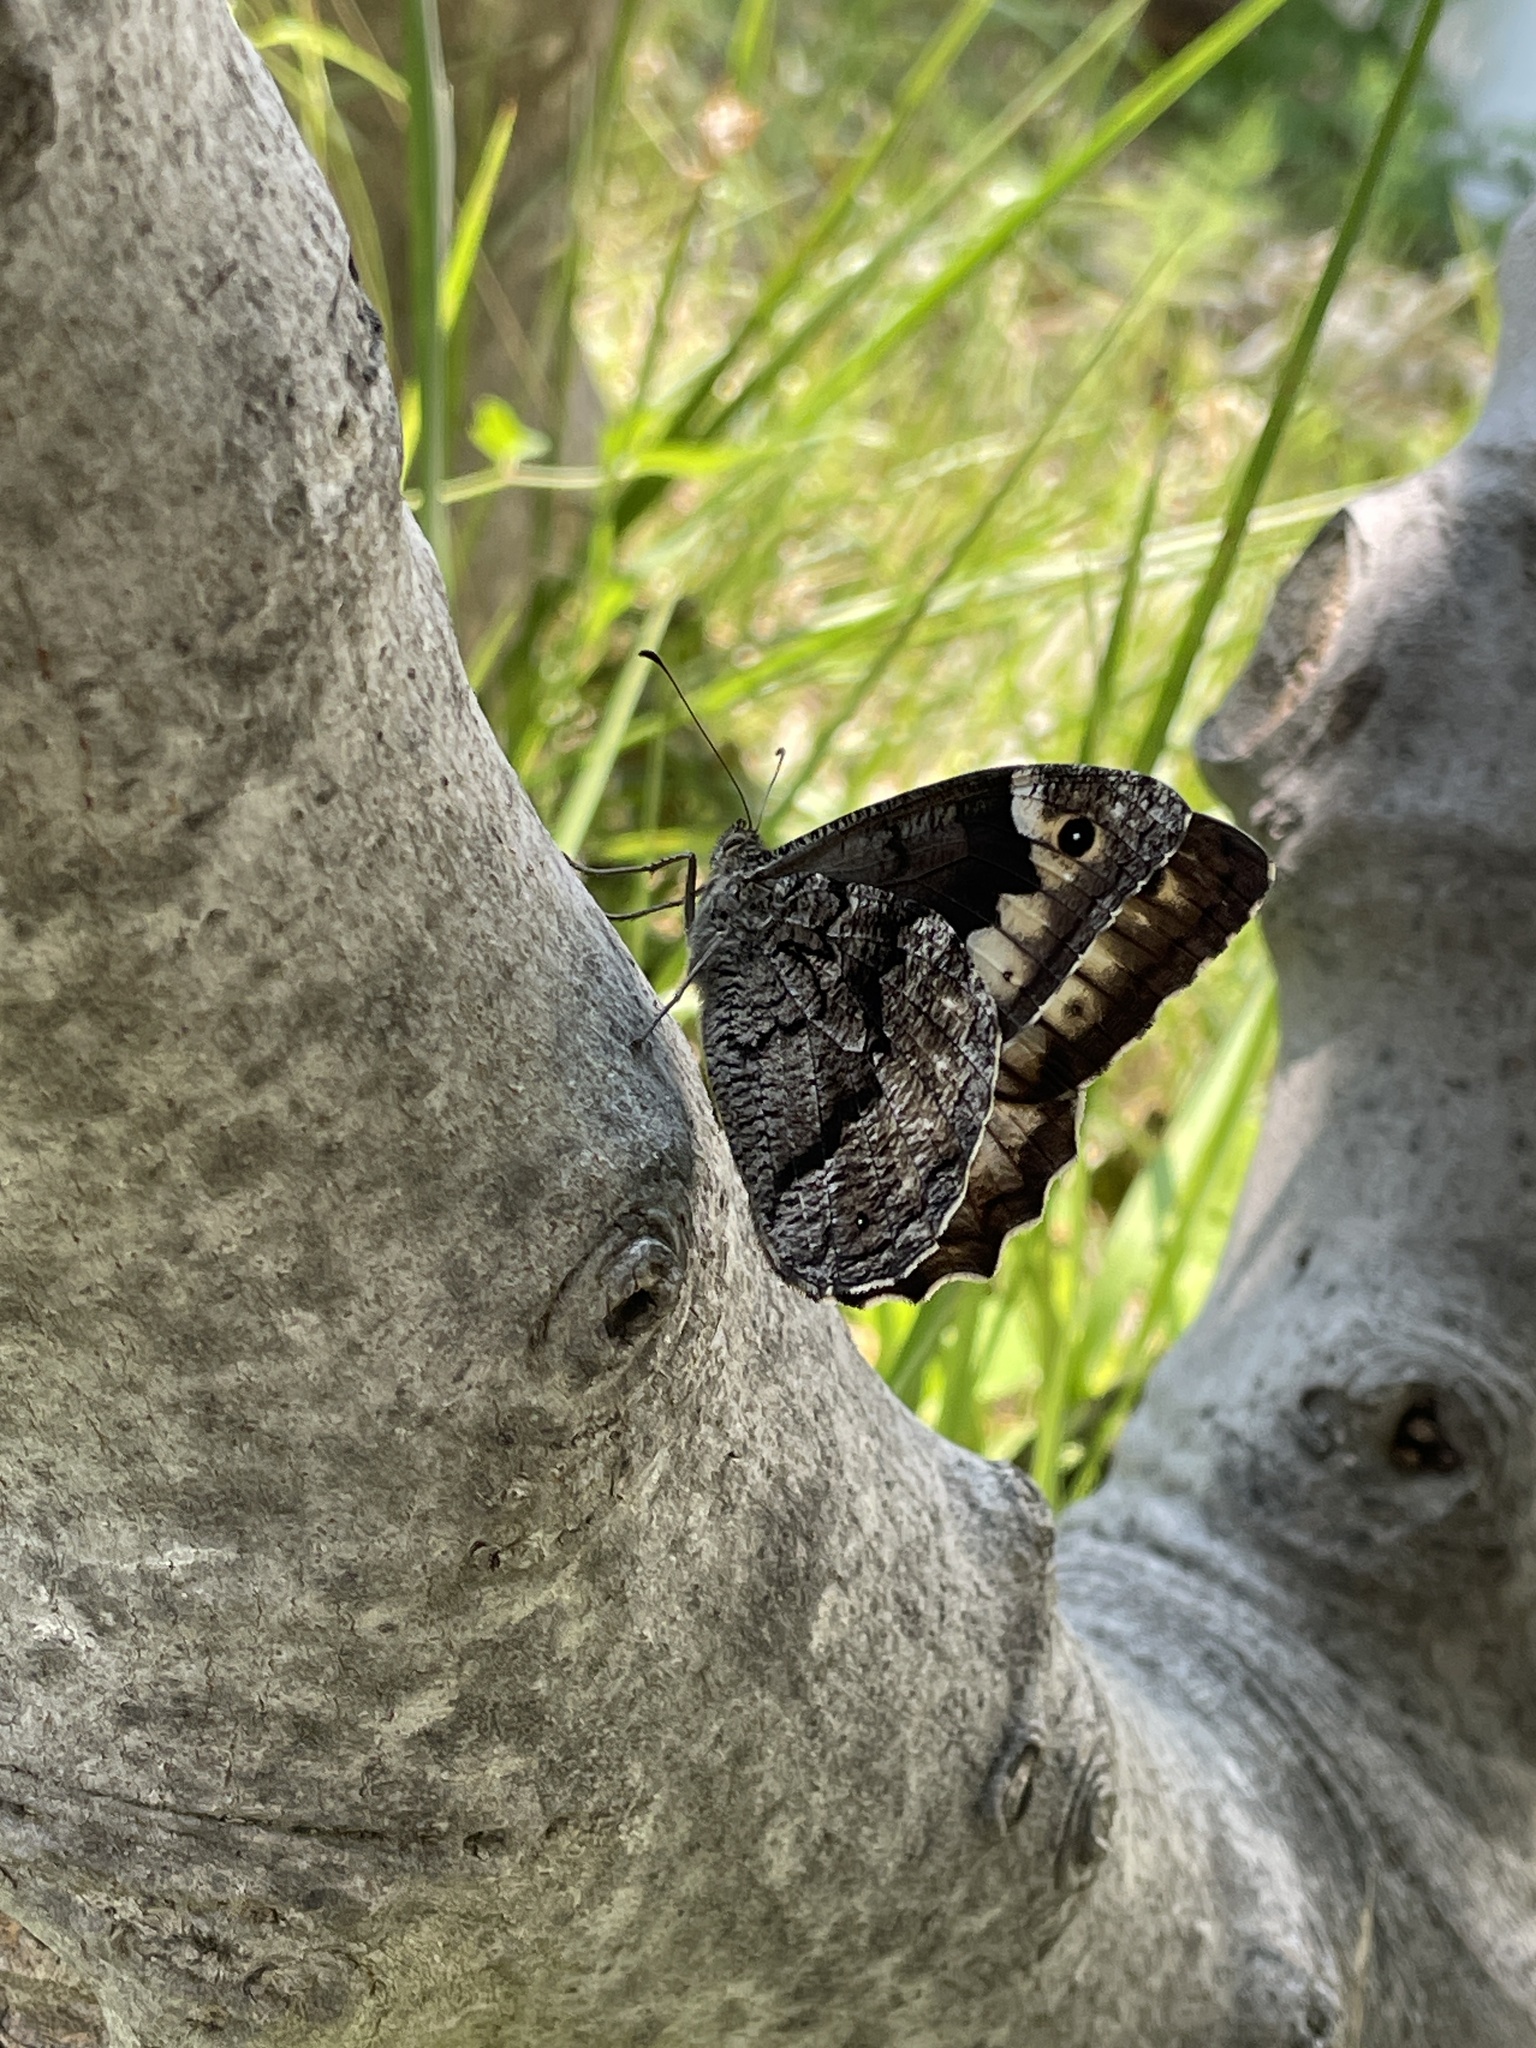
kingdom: Animalia
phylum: Arthropoda
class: Insecta
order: Lepidoptera
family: Nymphalidae
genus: Hipparchia
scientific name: Hipparchia syriaca
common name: Eastern rock grayling
